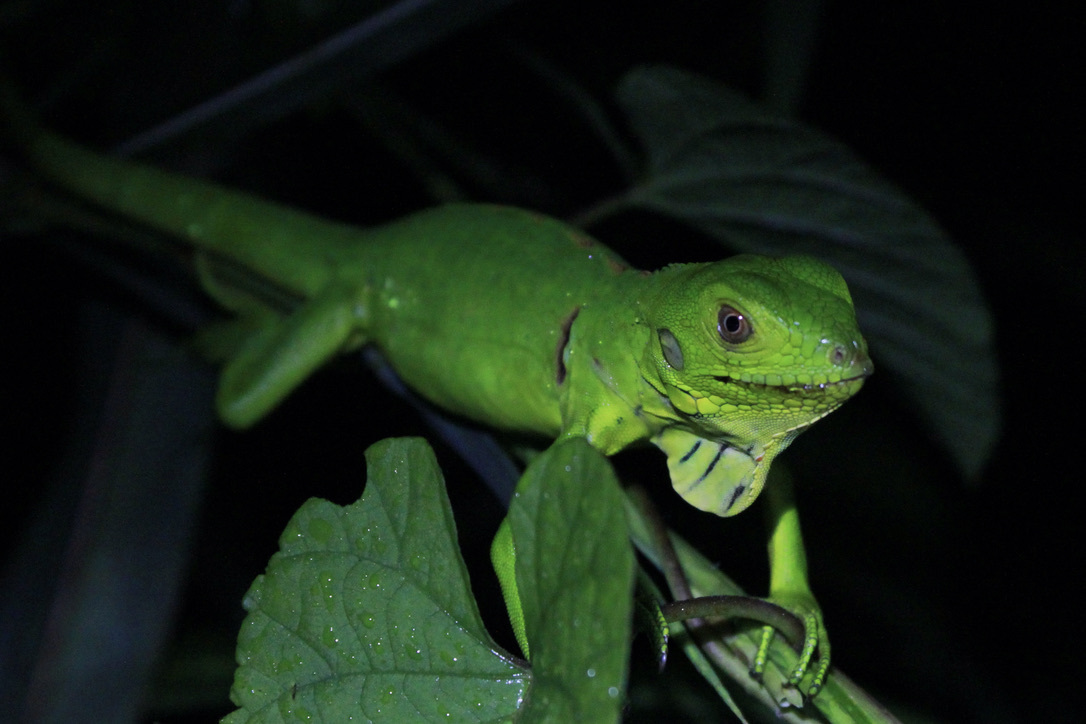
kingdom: Animalia
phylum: Chordata
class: Squamata
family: Iguanidae
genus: Iguana
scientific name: Iguana iguana
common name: Green iguana
